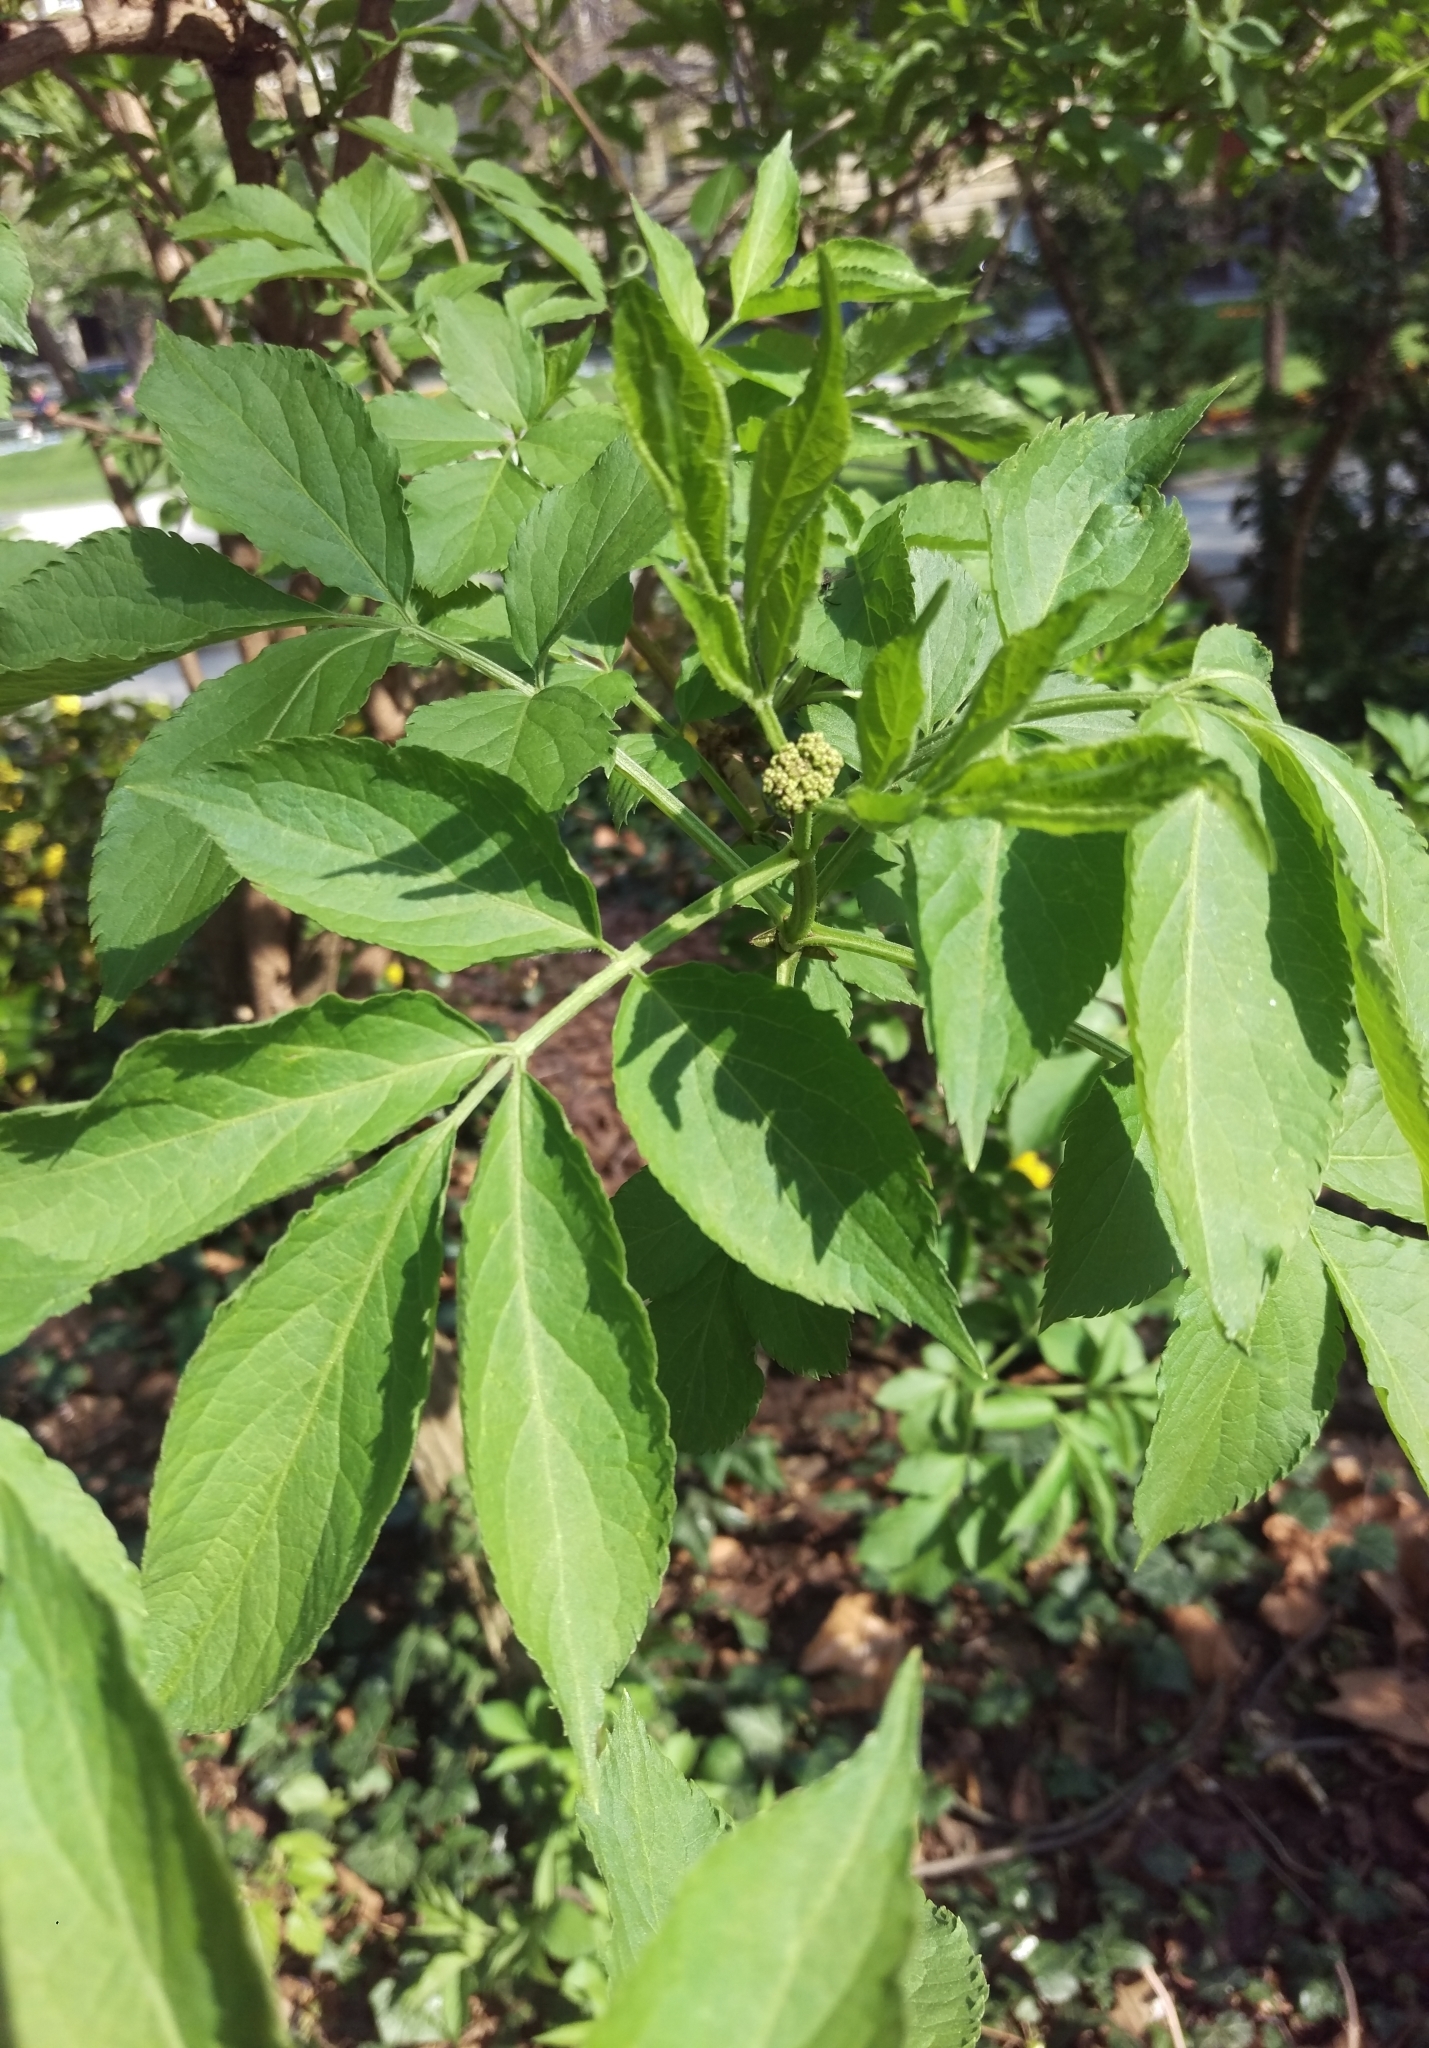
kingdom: Plantae
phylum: Tracheophyta
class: Magnoliopsida
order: Dipsacales
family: Viburnaceae
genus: Sambucus
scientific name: Sambucus nigra
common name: Elder
